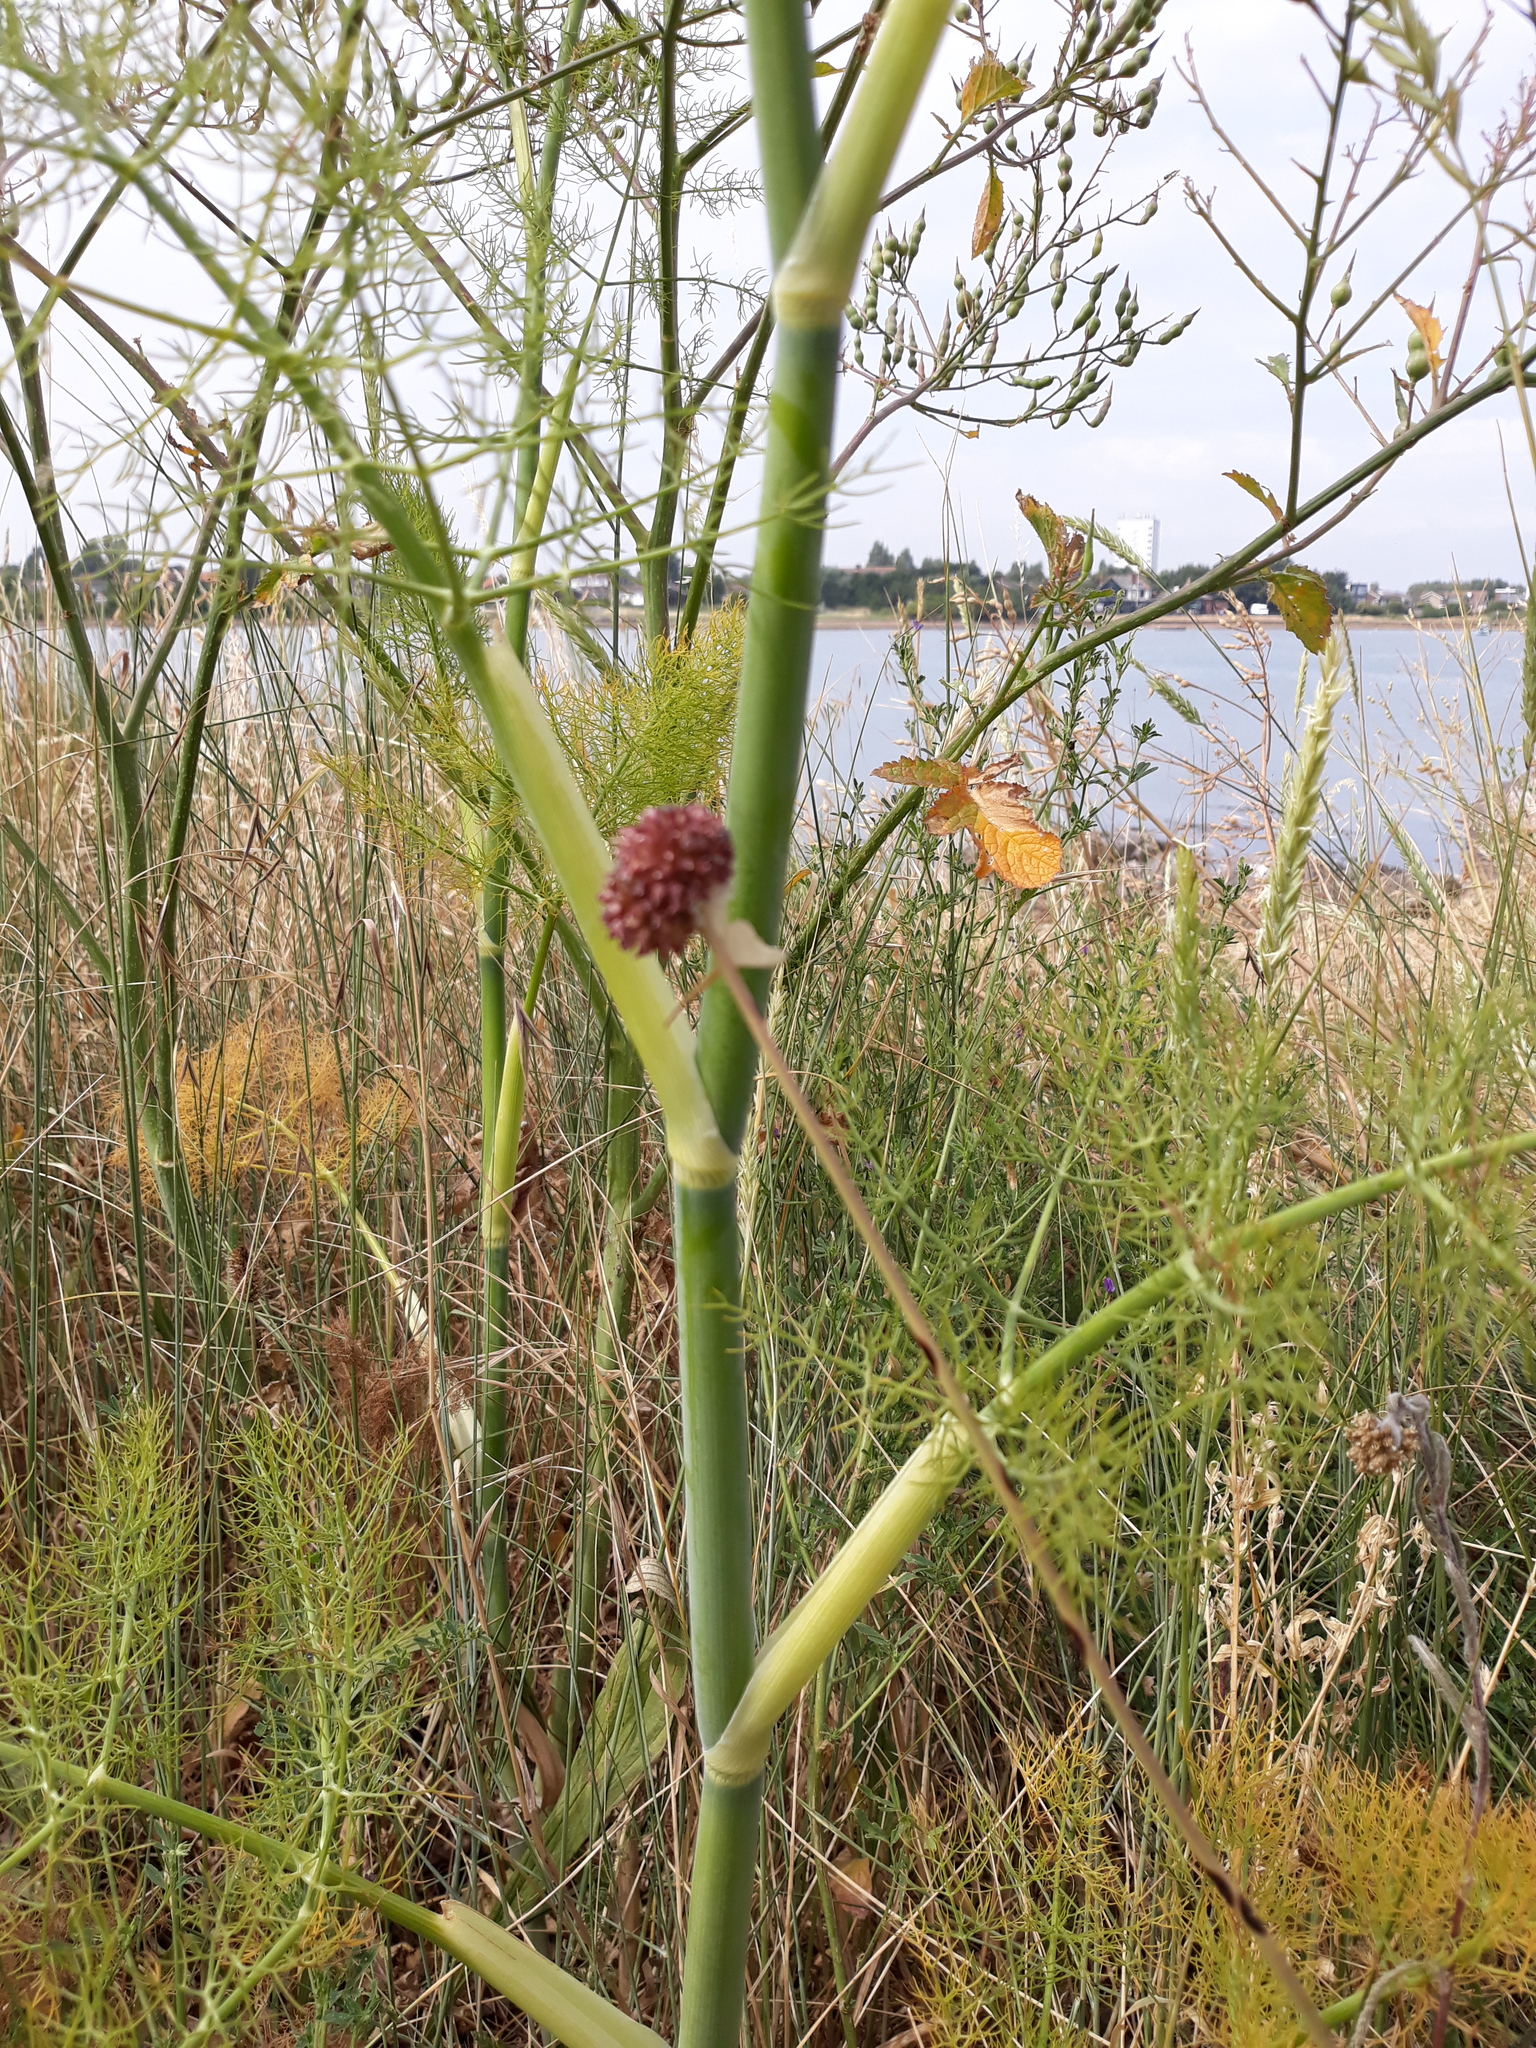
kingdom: Plantae
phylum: Tracheophyta
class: Liliopsida
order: Asparagales
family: Amaryllidaceae
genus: Allium
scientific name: Allium vineale
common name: Crow garlic
